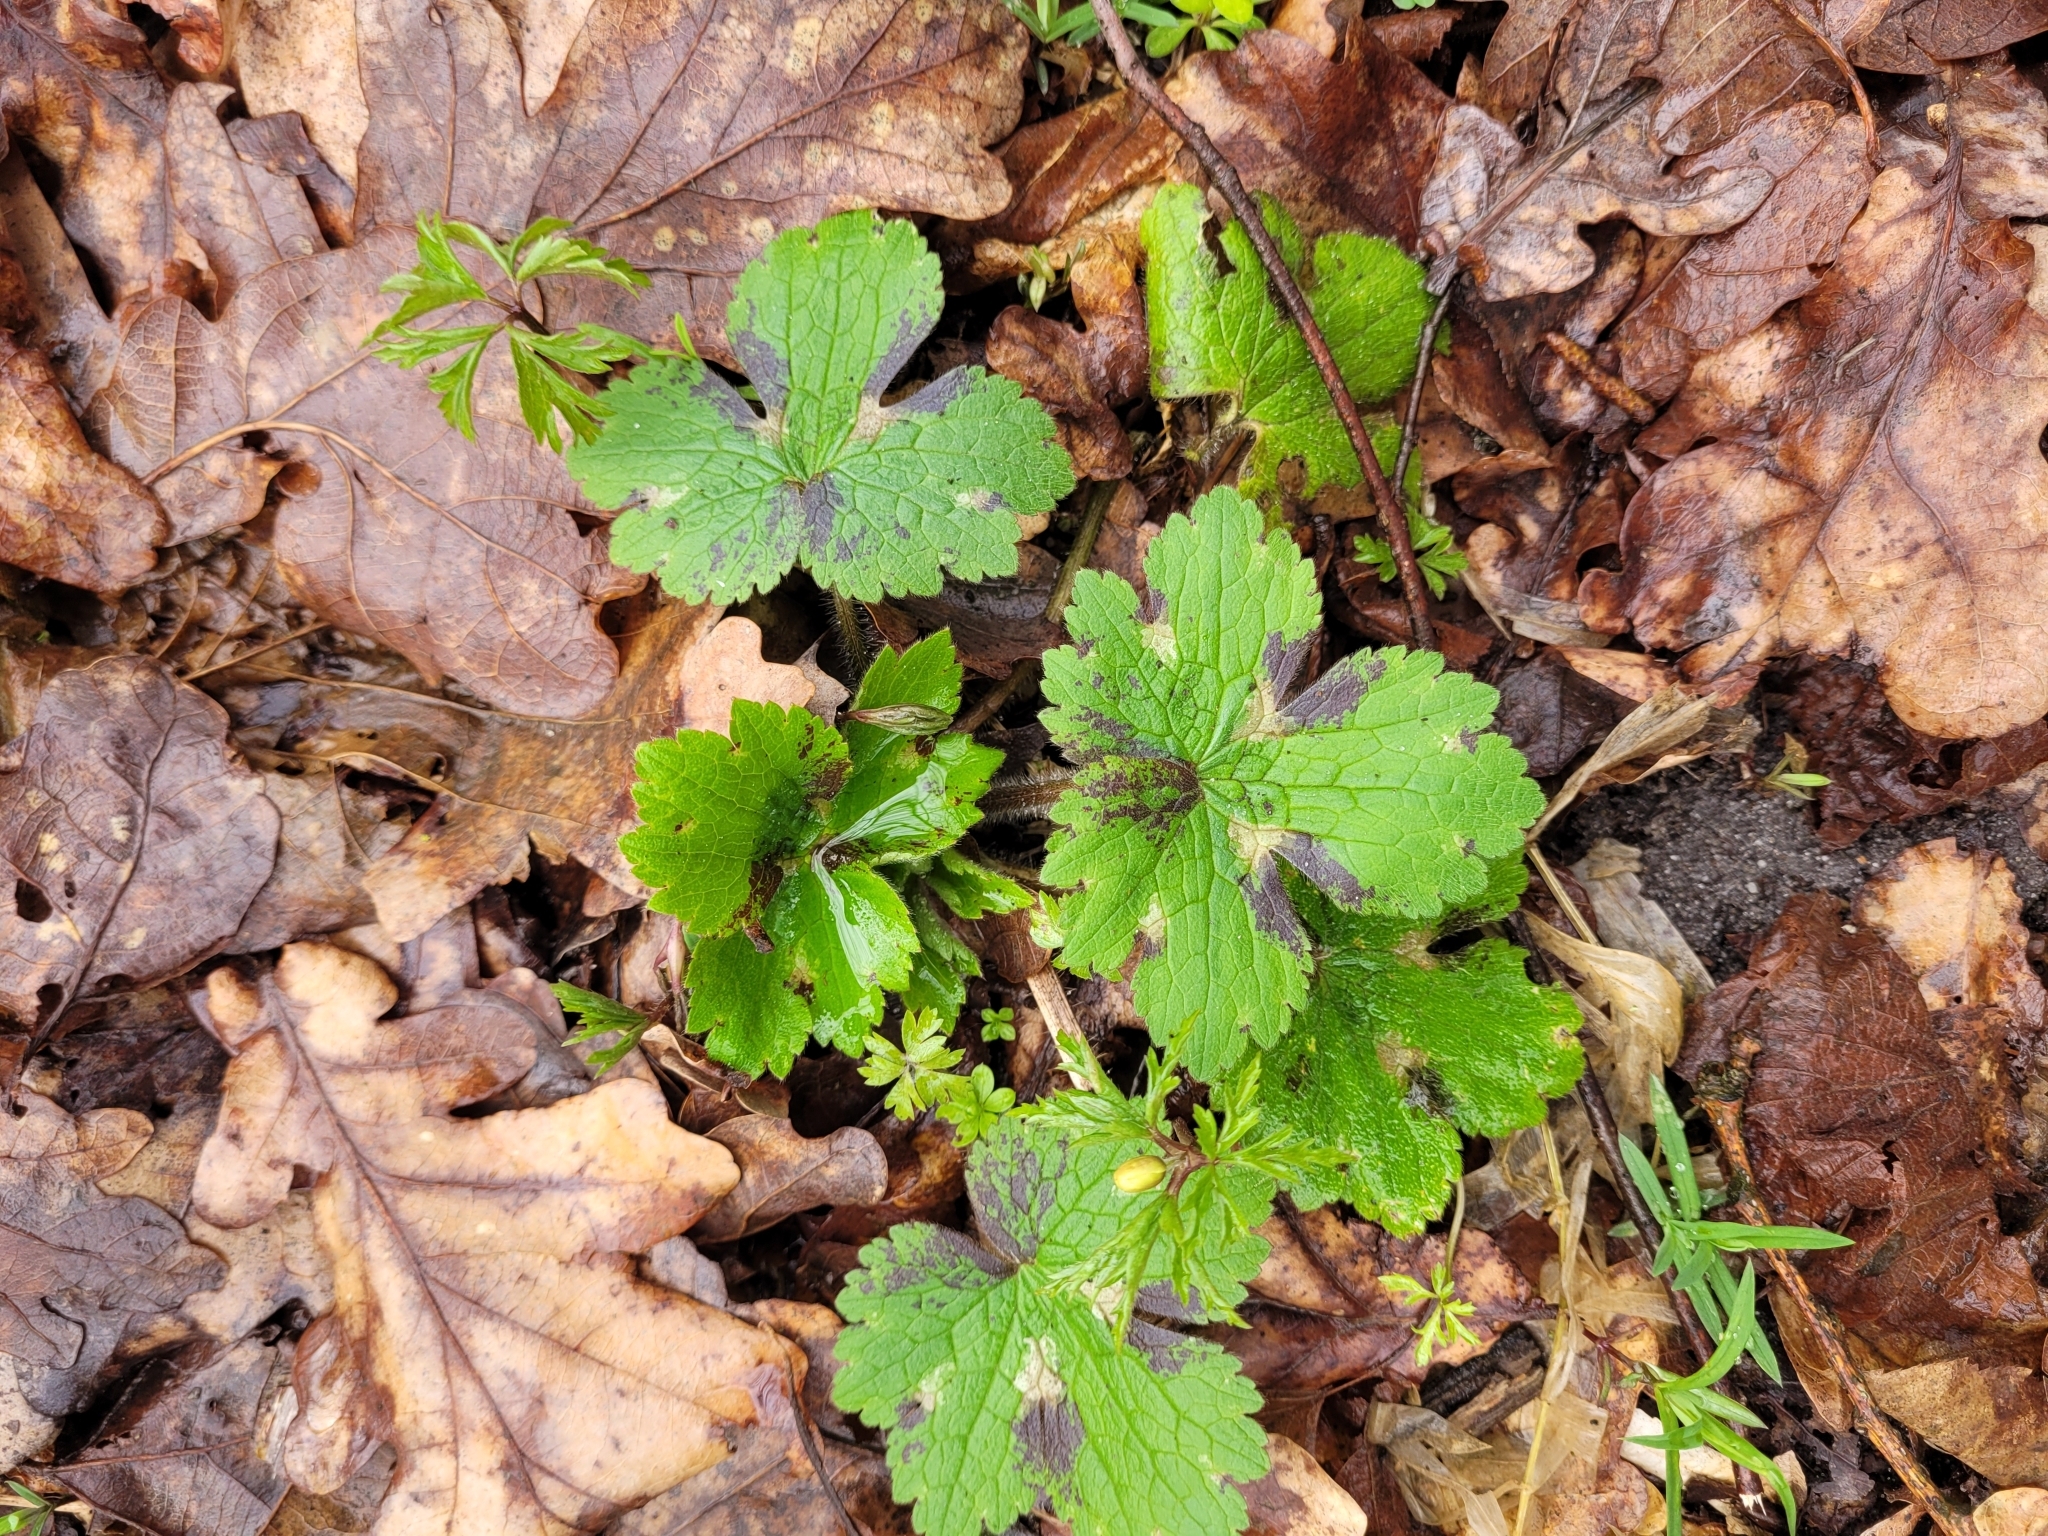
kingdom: Plantae
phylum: Tracheophyta
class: Magnoliopsida
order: Ranunculales
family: Ranunculaceae
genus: Ranunculus
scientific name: Ranunculus lanuginosus
